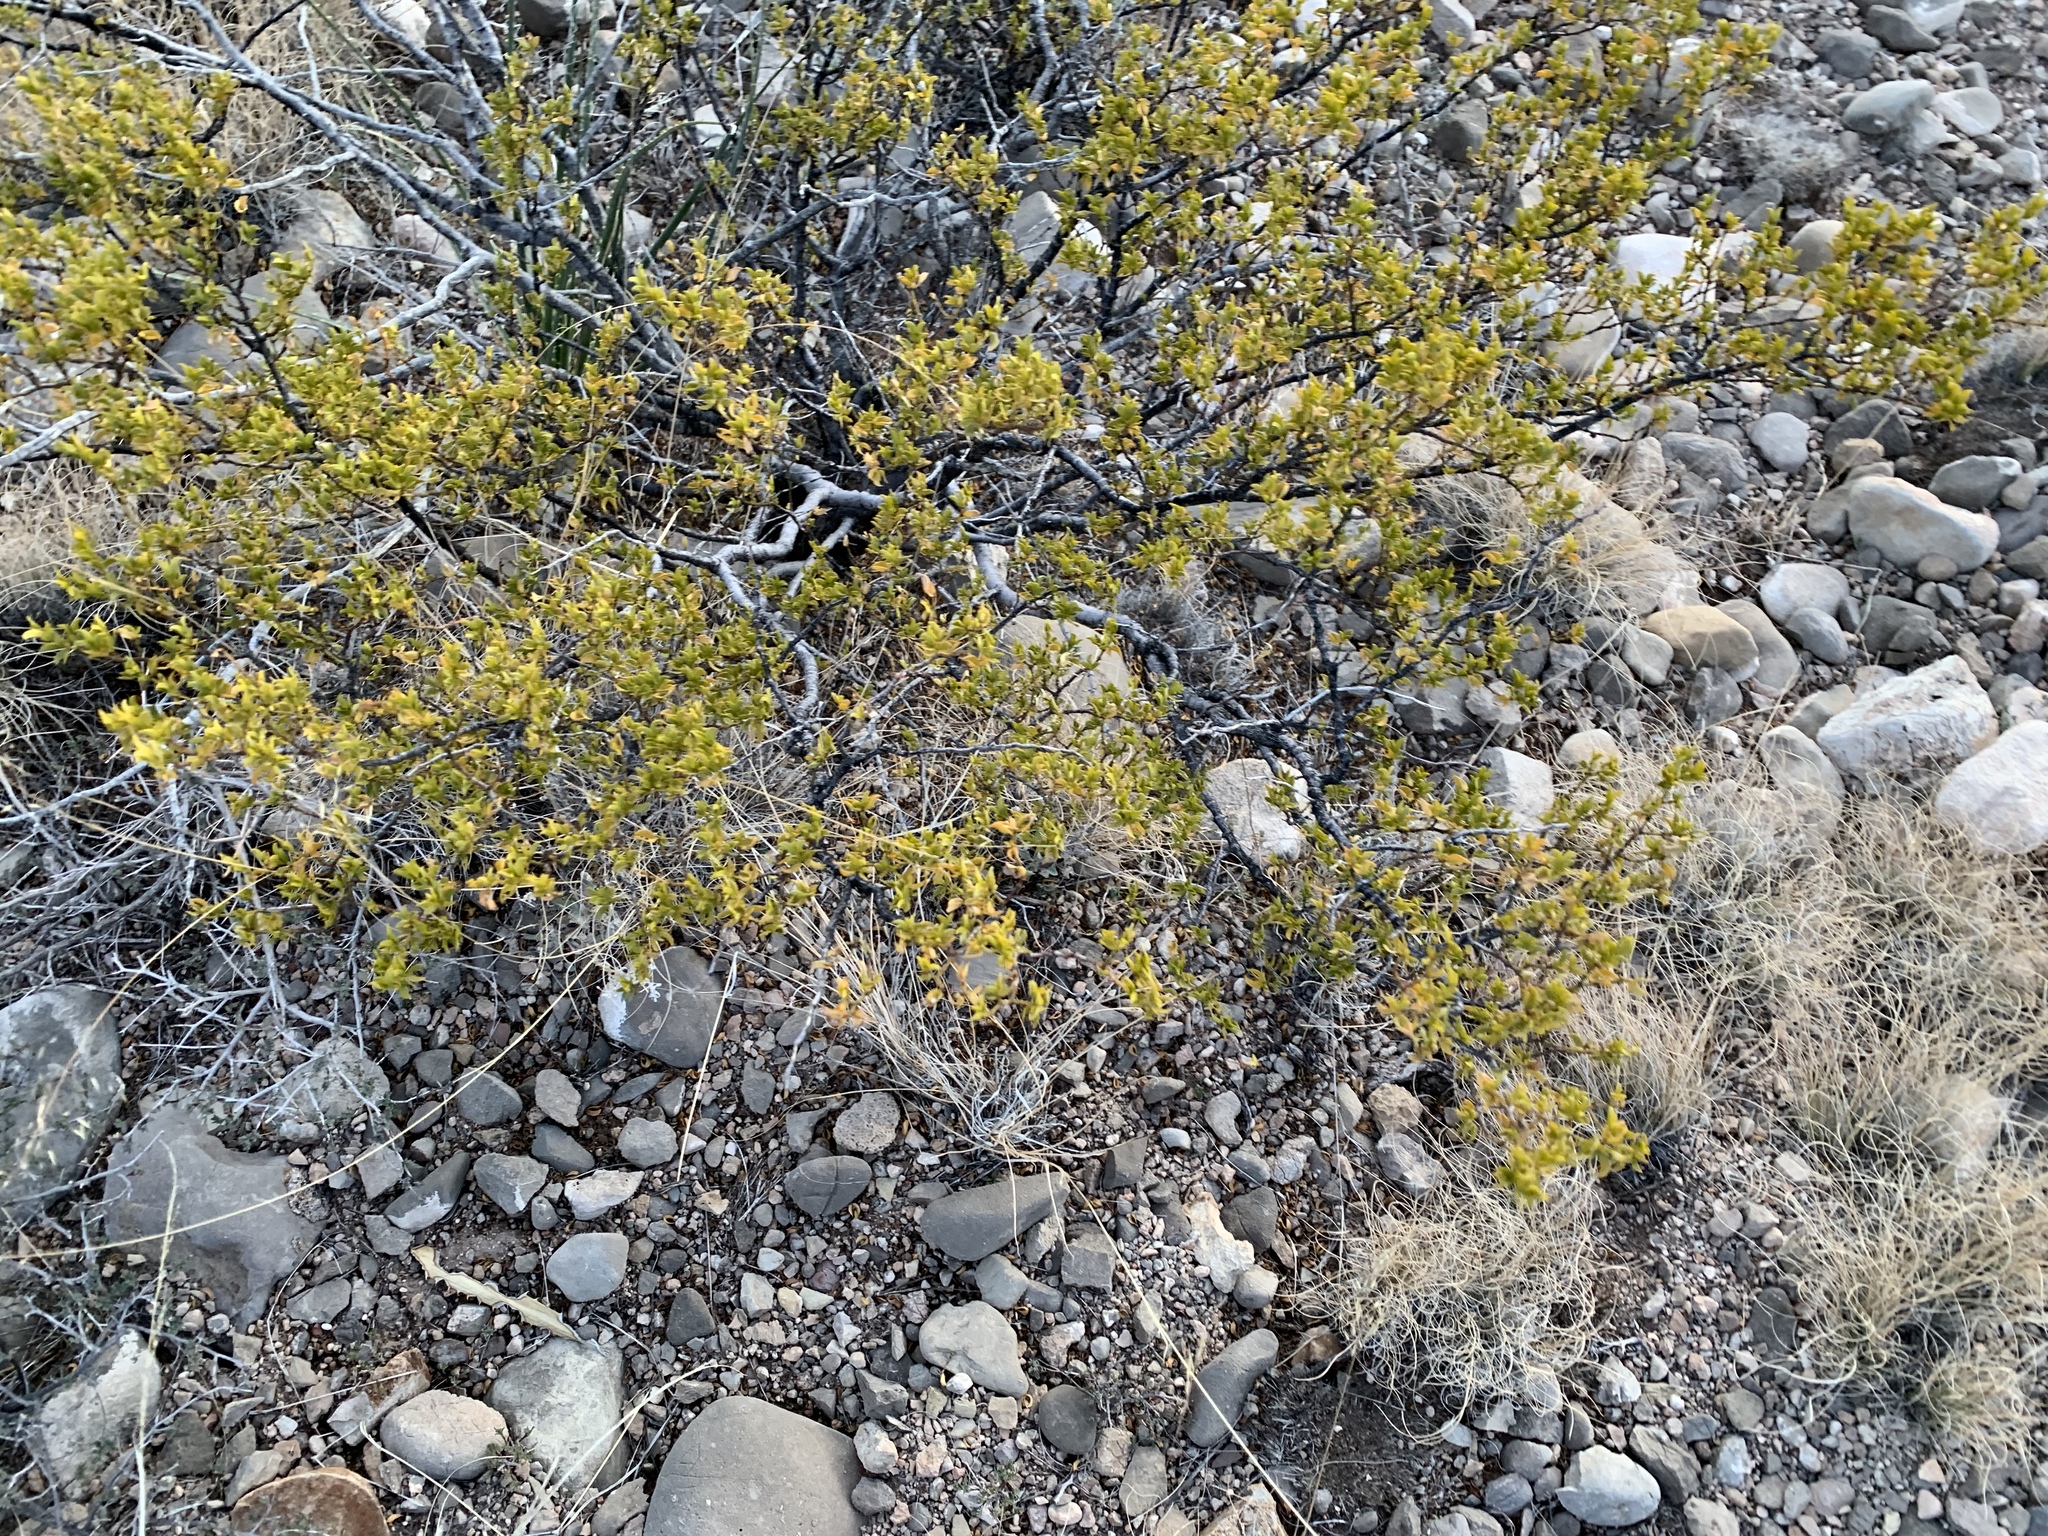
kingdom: Plantae
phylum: Tracheophyta
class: Magnoliopsida
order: Zygophyllales
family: Zygophyllaceae
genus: Larrea
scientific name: Larrea tridentata
